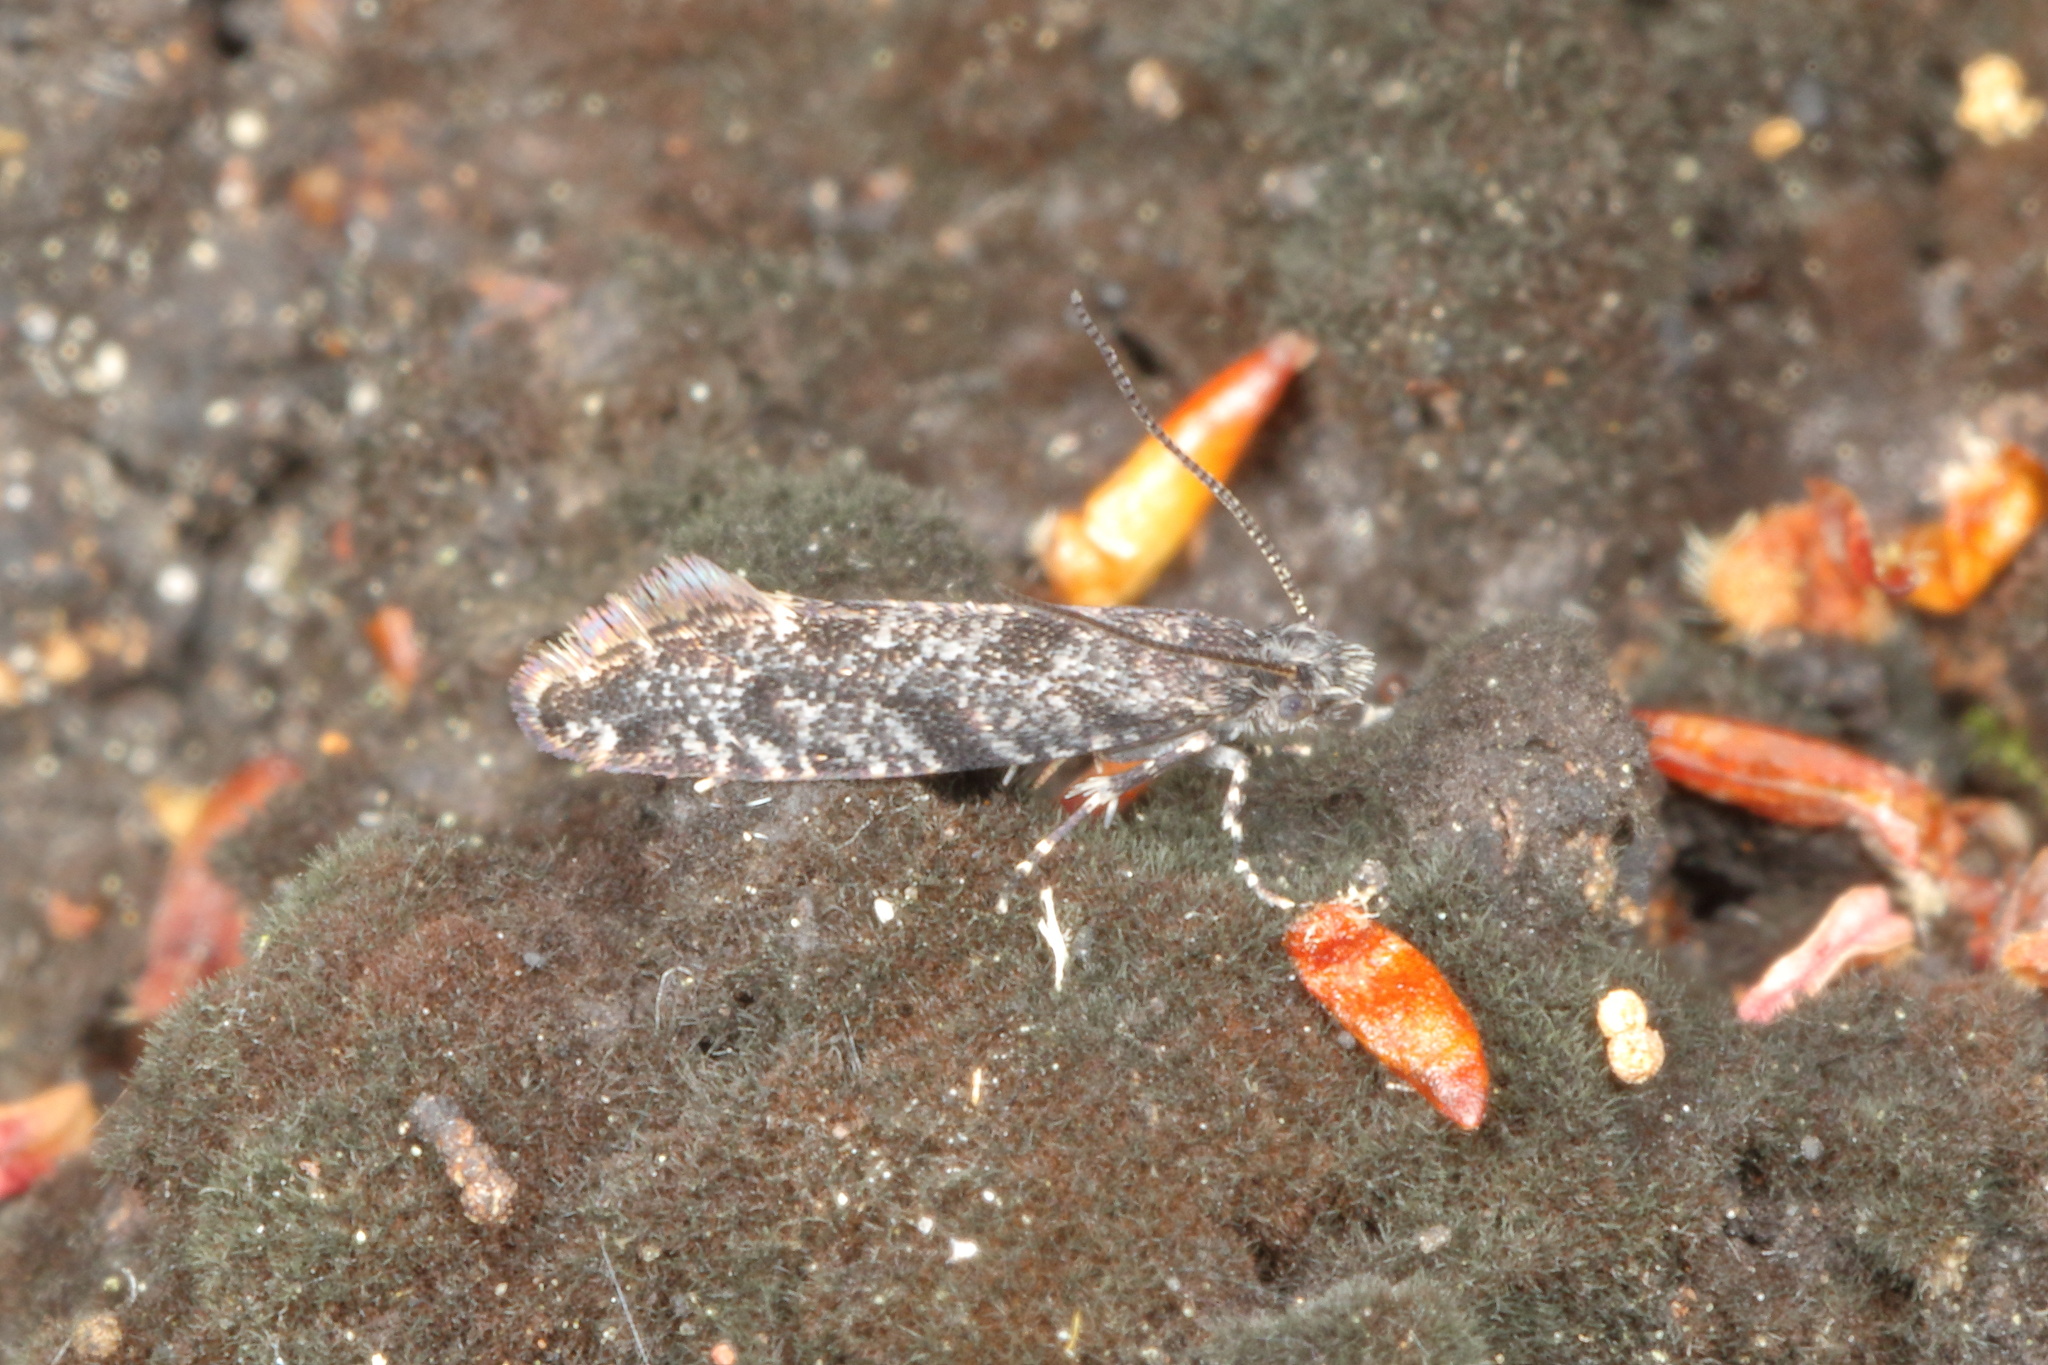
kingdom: Animalia
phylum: Arthropoda
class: Insecta
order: Lepidoptera
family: Tineidae
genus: Tinea
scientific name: Tinea fagicola
